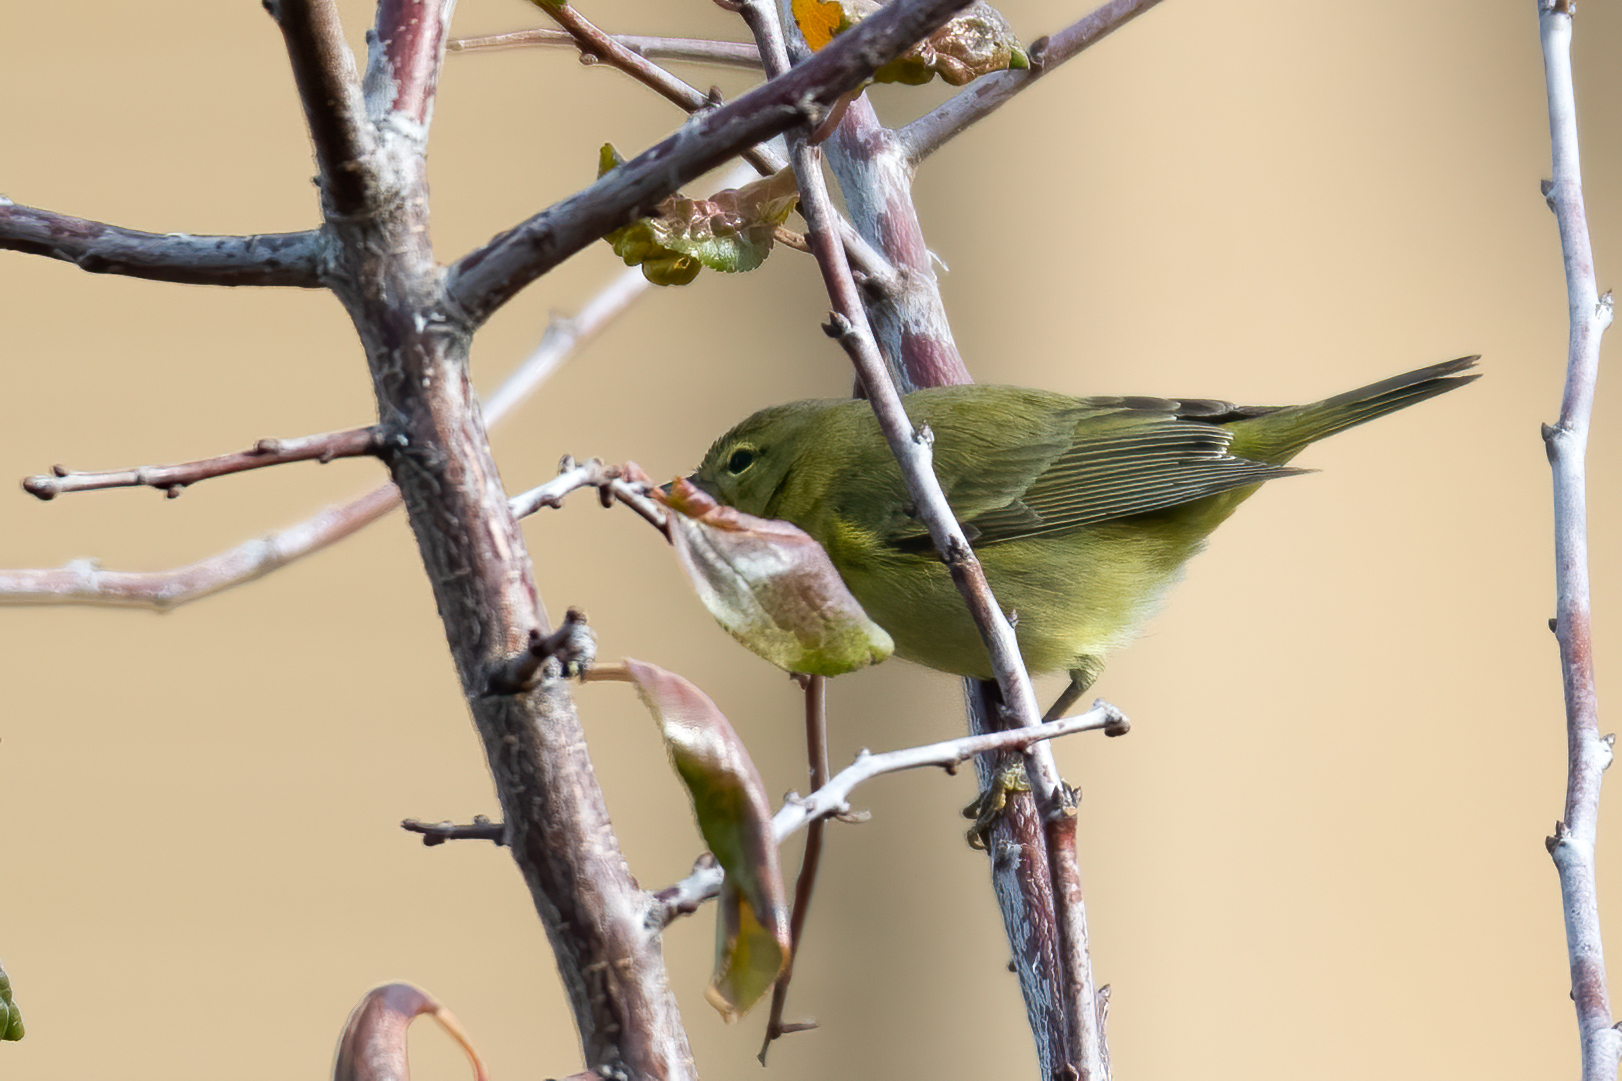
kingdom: Animalia
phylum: Chordata
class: Aves
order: Passeriformes
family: Parulidae
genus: Leiothlypis
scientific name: Leiothlypis celata
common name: Orange-crowned warbler
